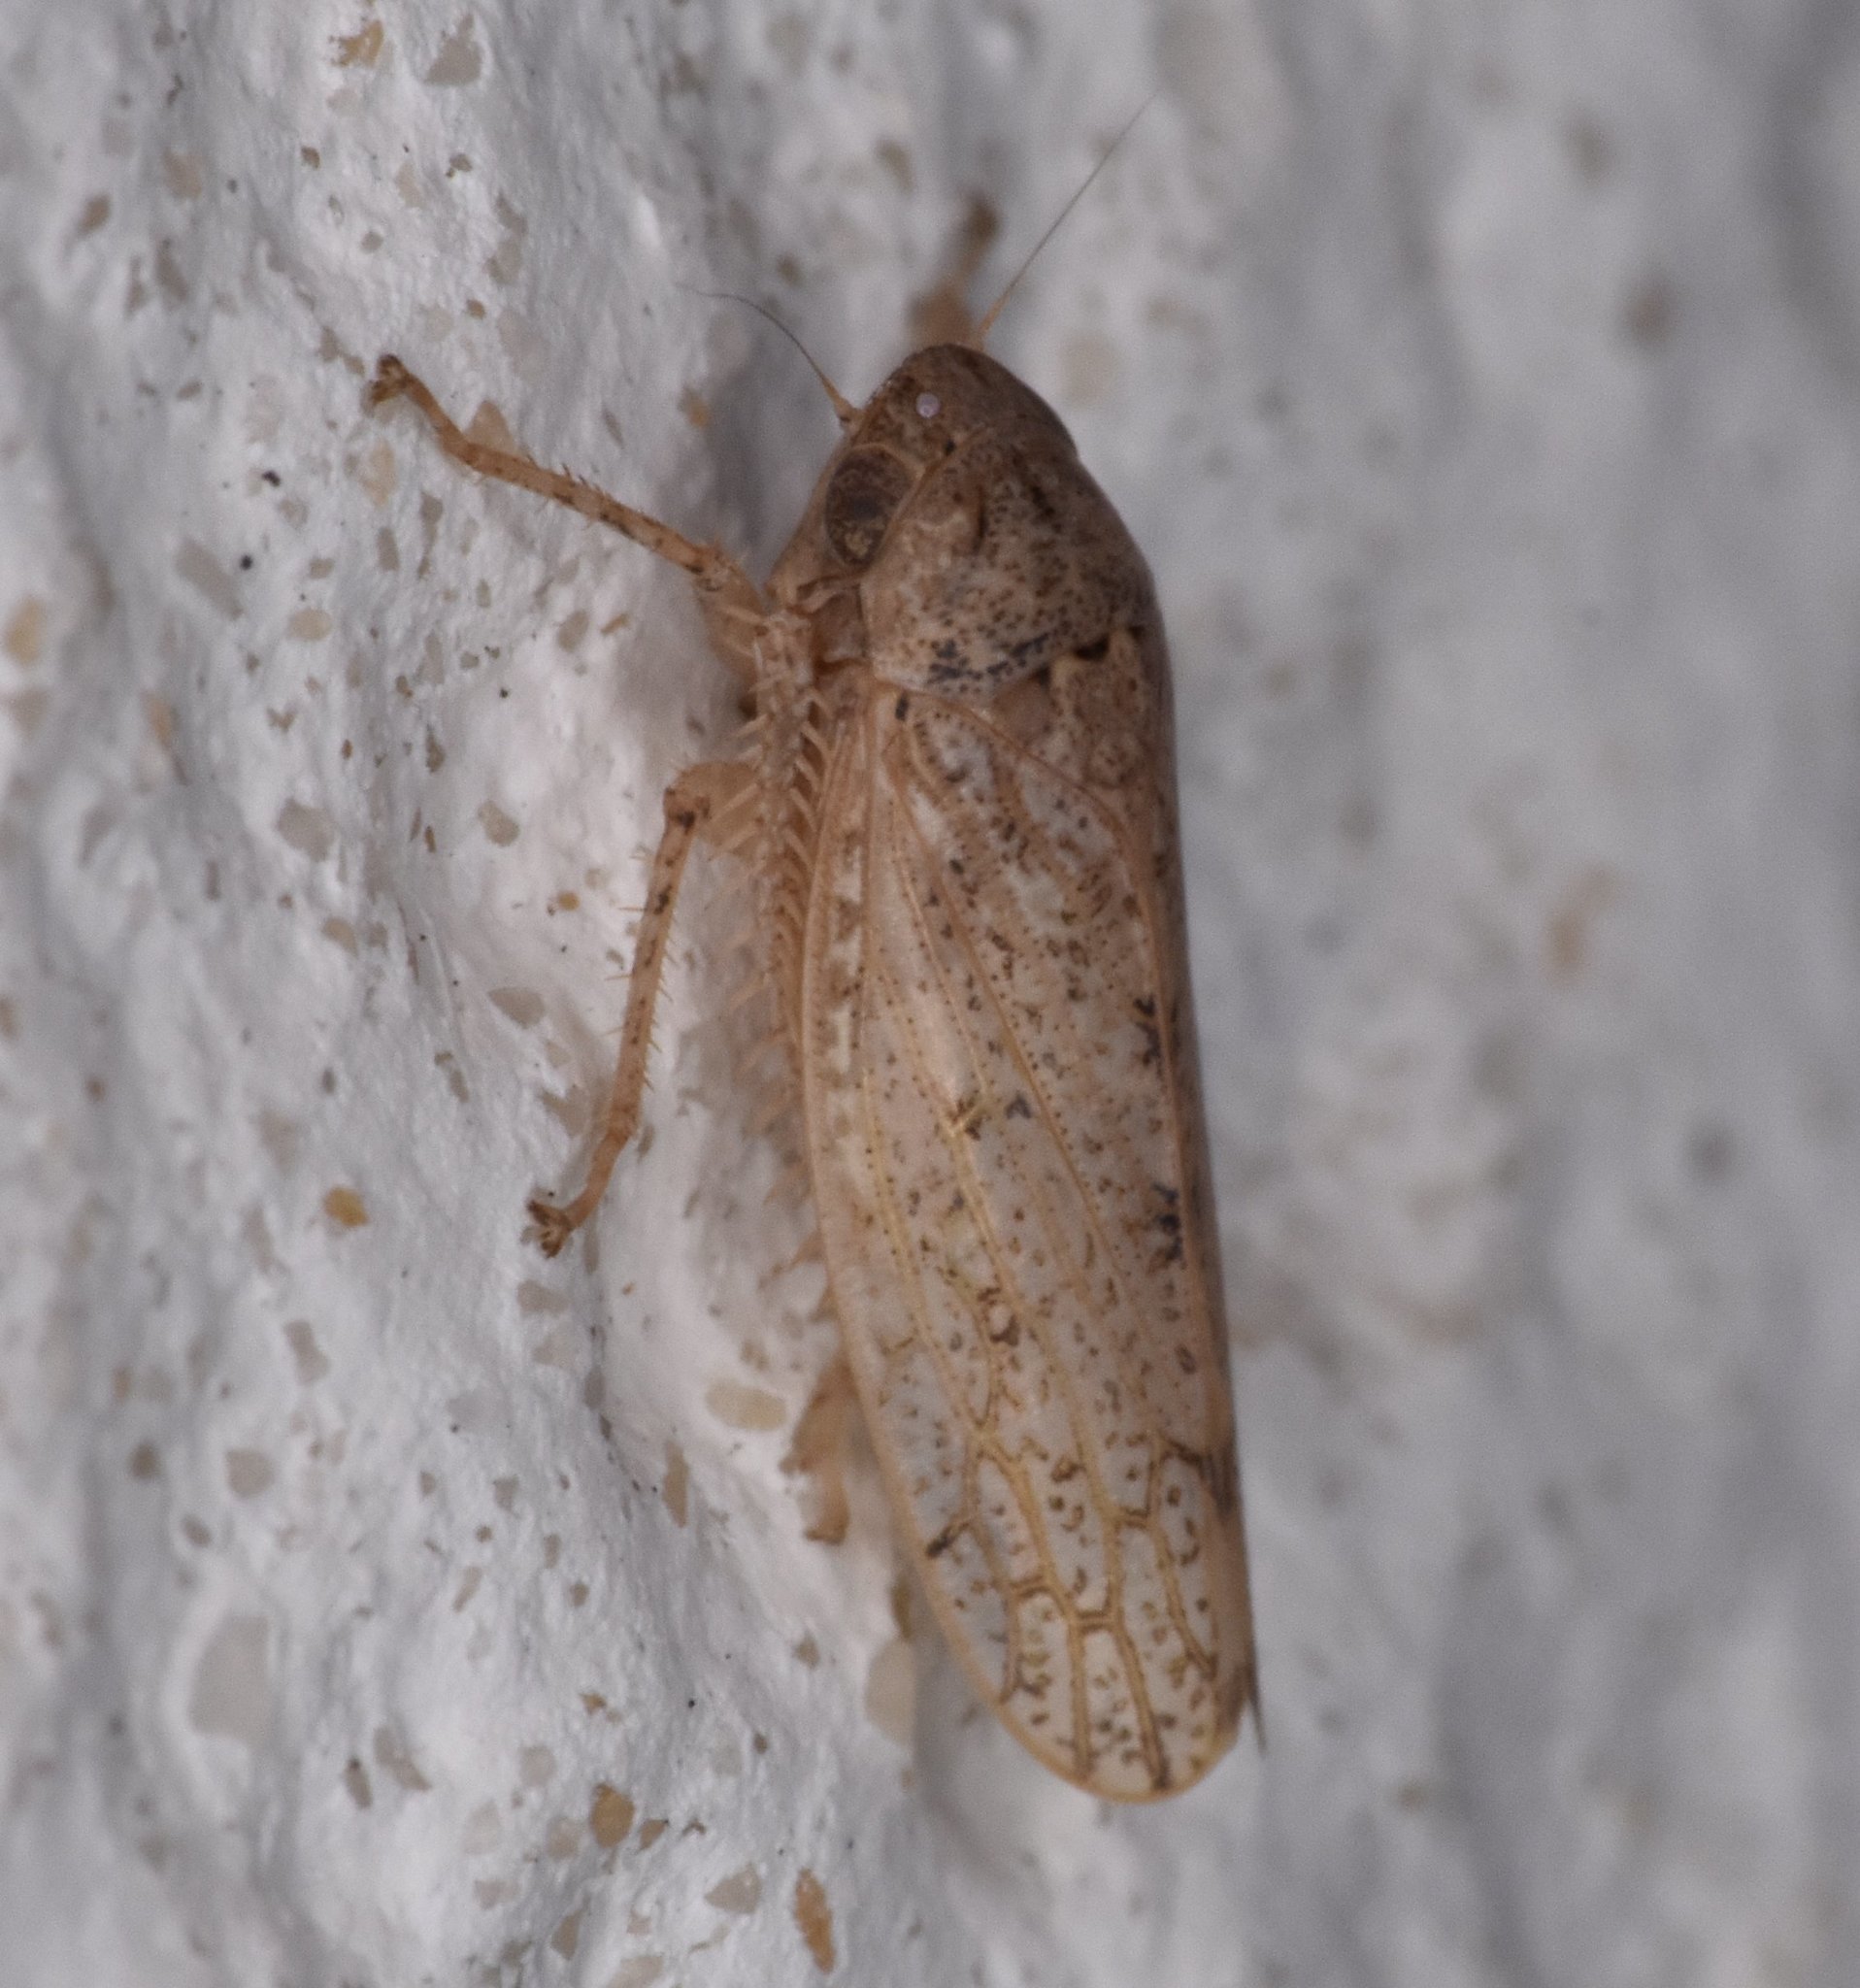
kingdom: Animalia
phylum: Arthropoda
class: Insecta
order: Hemiptera
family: Cicadellidae
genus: Curtara
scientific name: Curtara insularis
